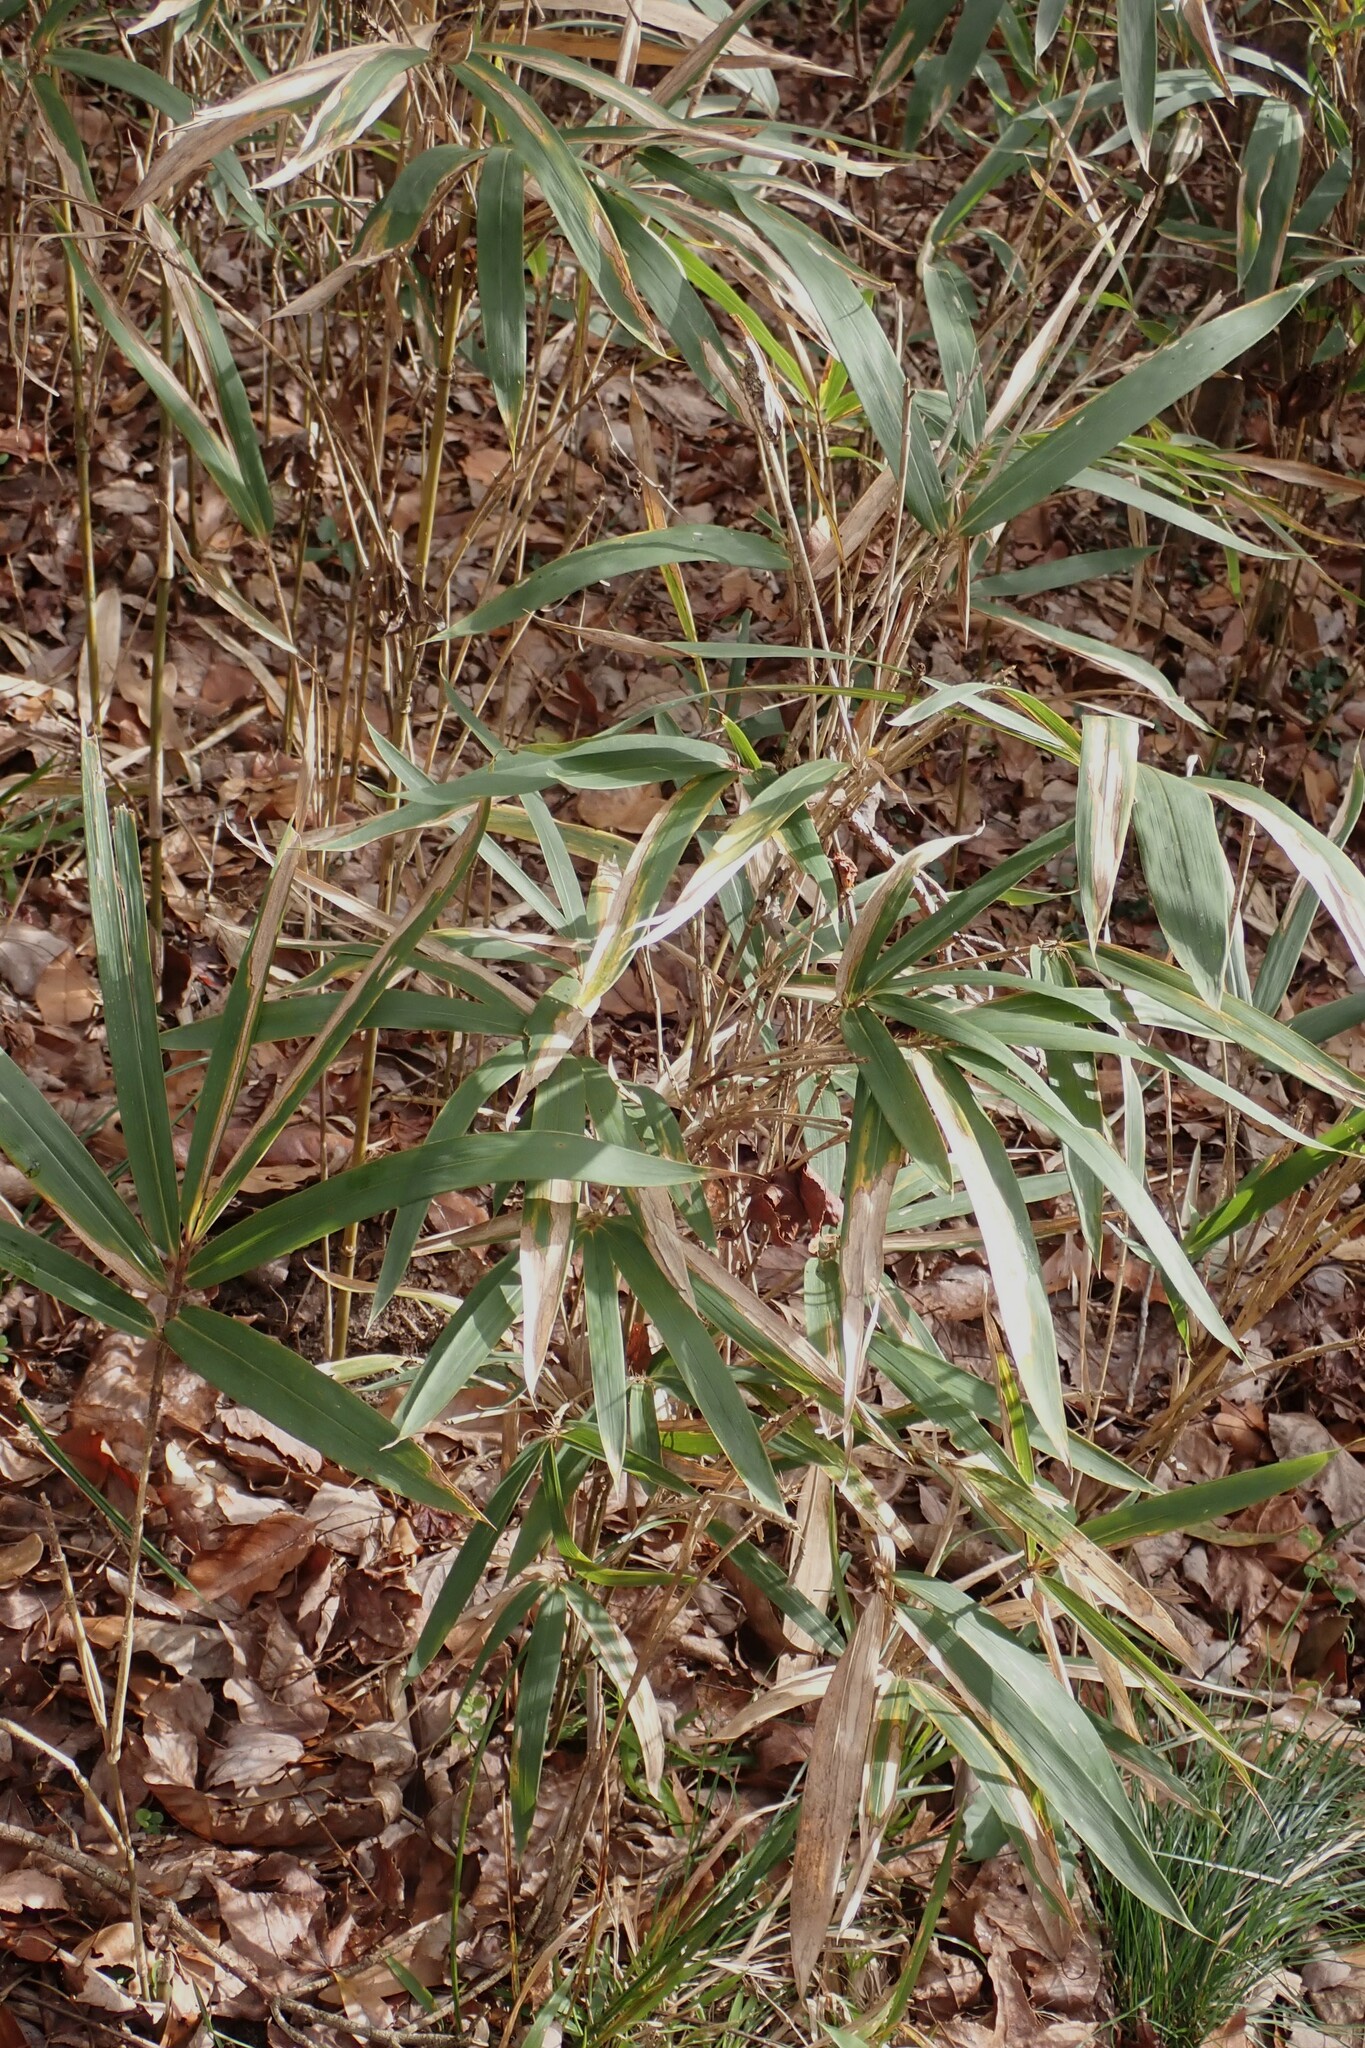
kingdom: Plantae
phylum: Tracheophyta
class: Liliopsida
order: Poales
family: Poaceae
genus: Arundinaria
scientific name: Arundinaria tecta
